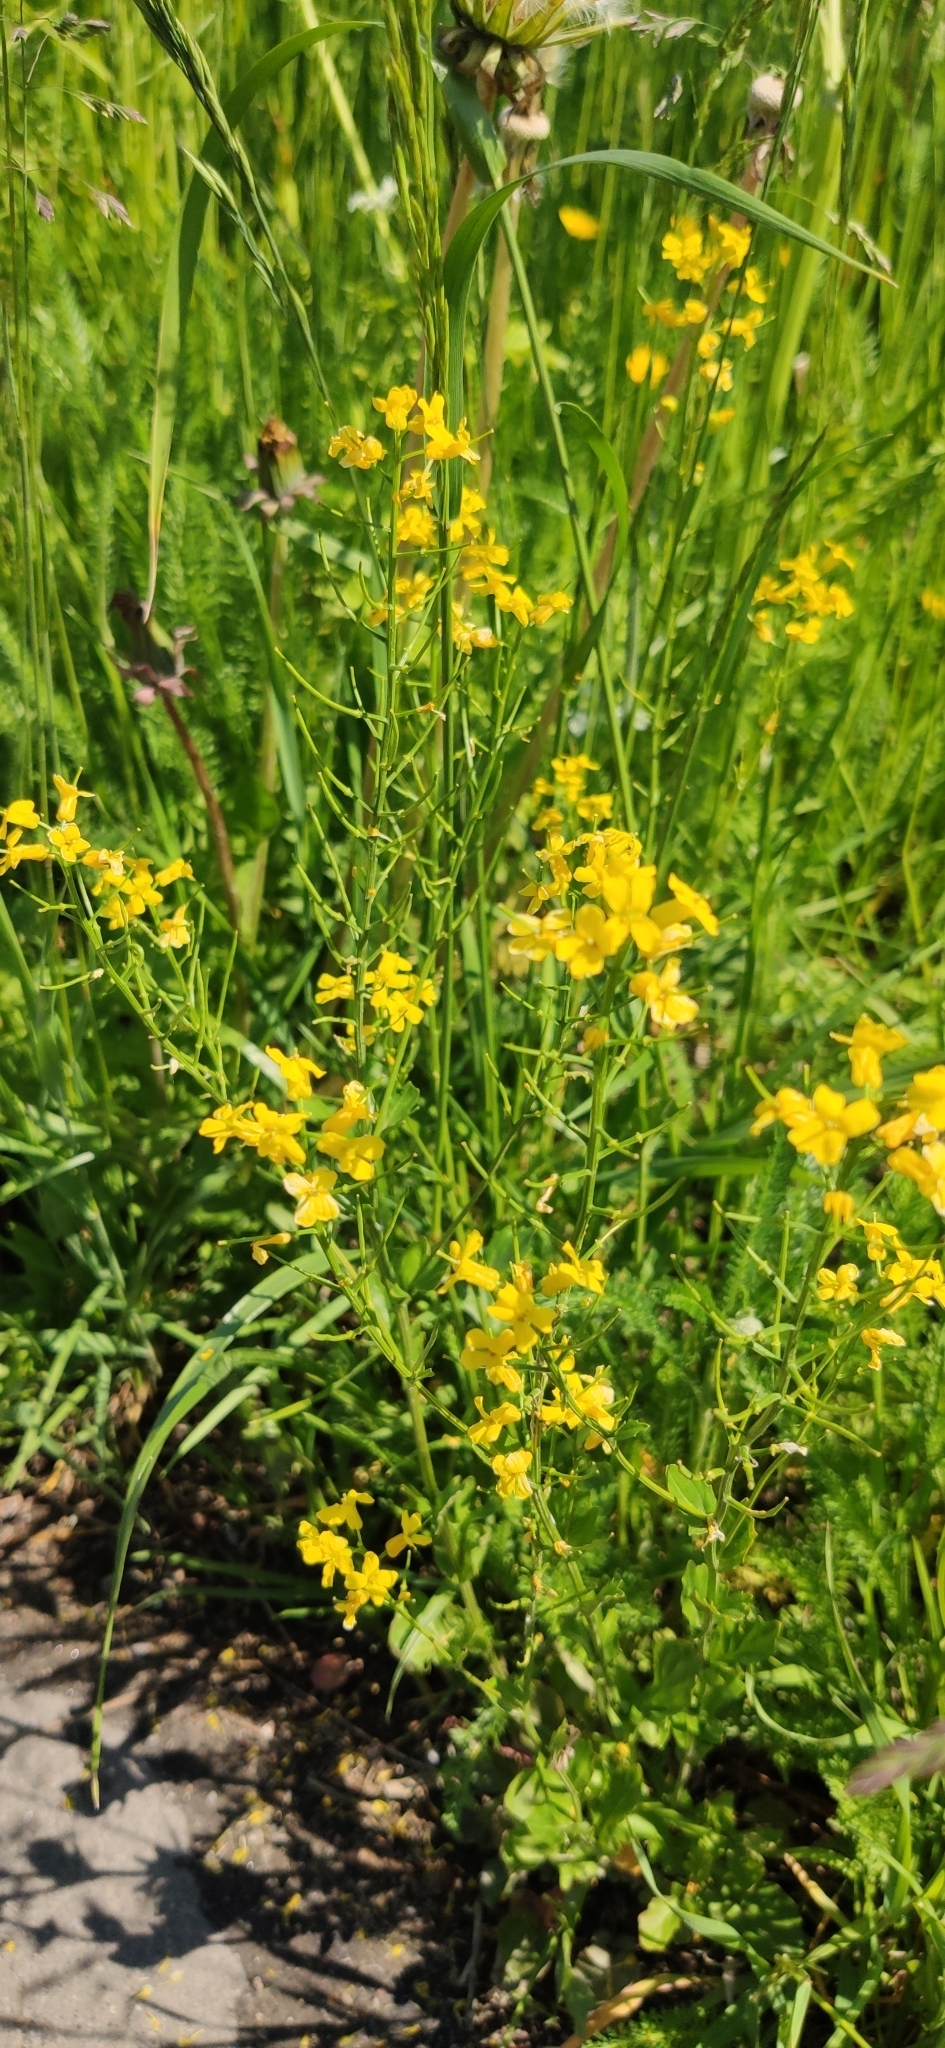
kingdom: Plantae
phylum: Tracheophyta
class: Magnoliopsida
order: Brassicales
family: Brassicaceae
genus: Barbarea
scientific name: Barbarea vulgaris
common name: Cressy-greens
